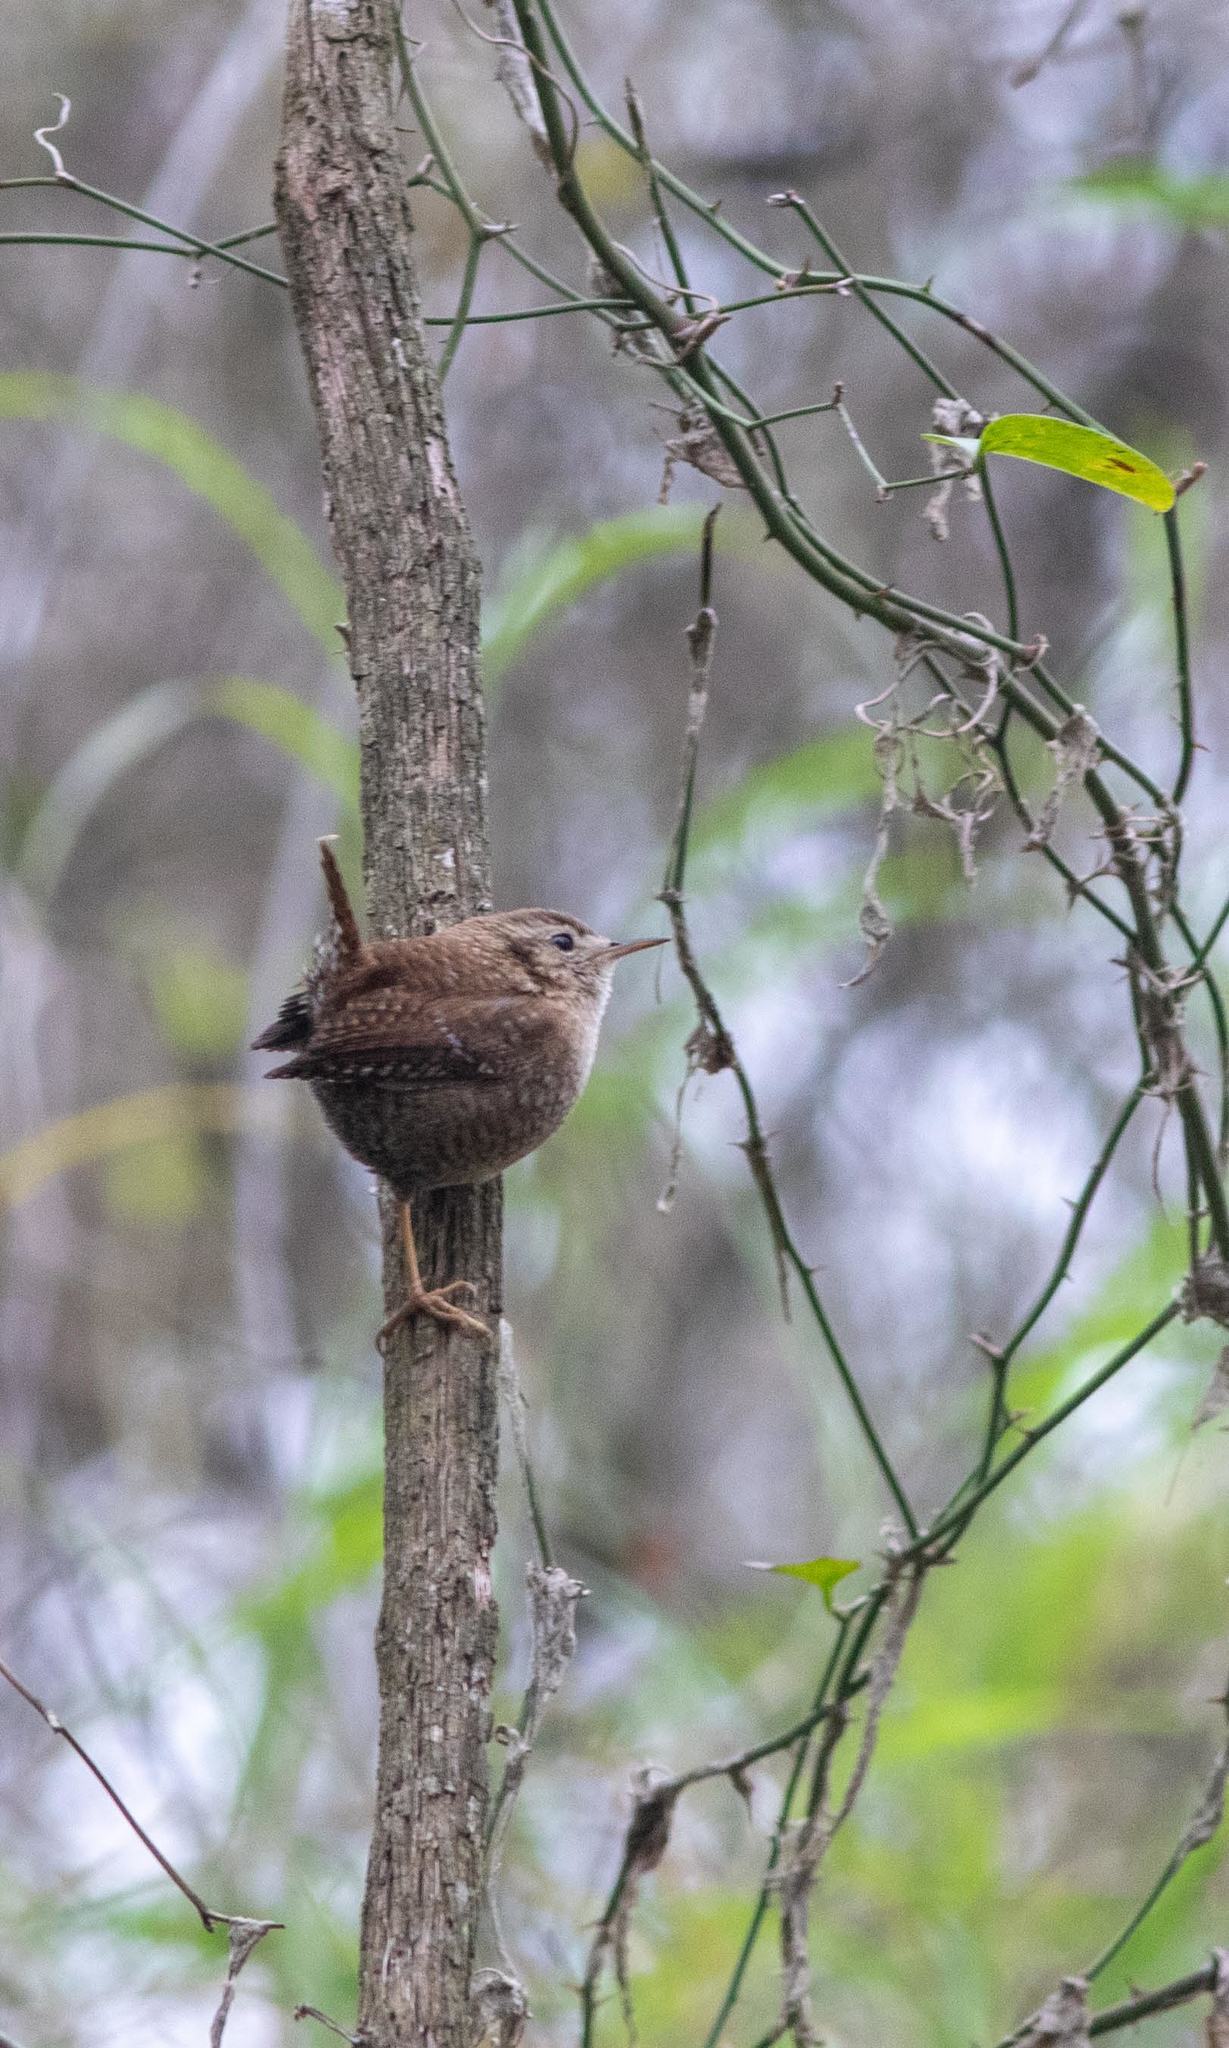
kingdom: Animalia
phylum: Chordata
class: Aves
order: Passeriformes
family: Troglodytidae
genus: Troglodytes
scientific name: Troglodytes hiemalis
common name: Winter wren
